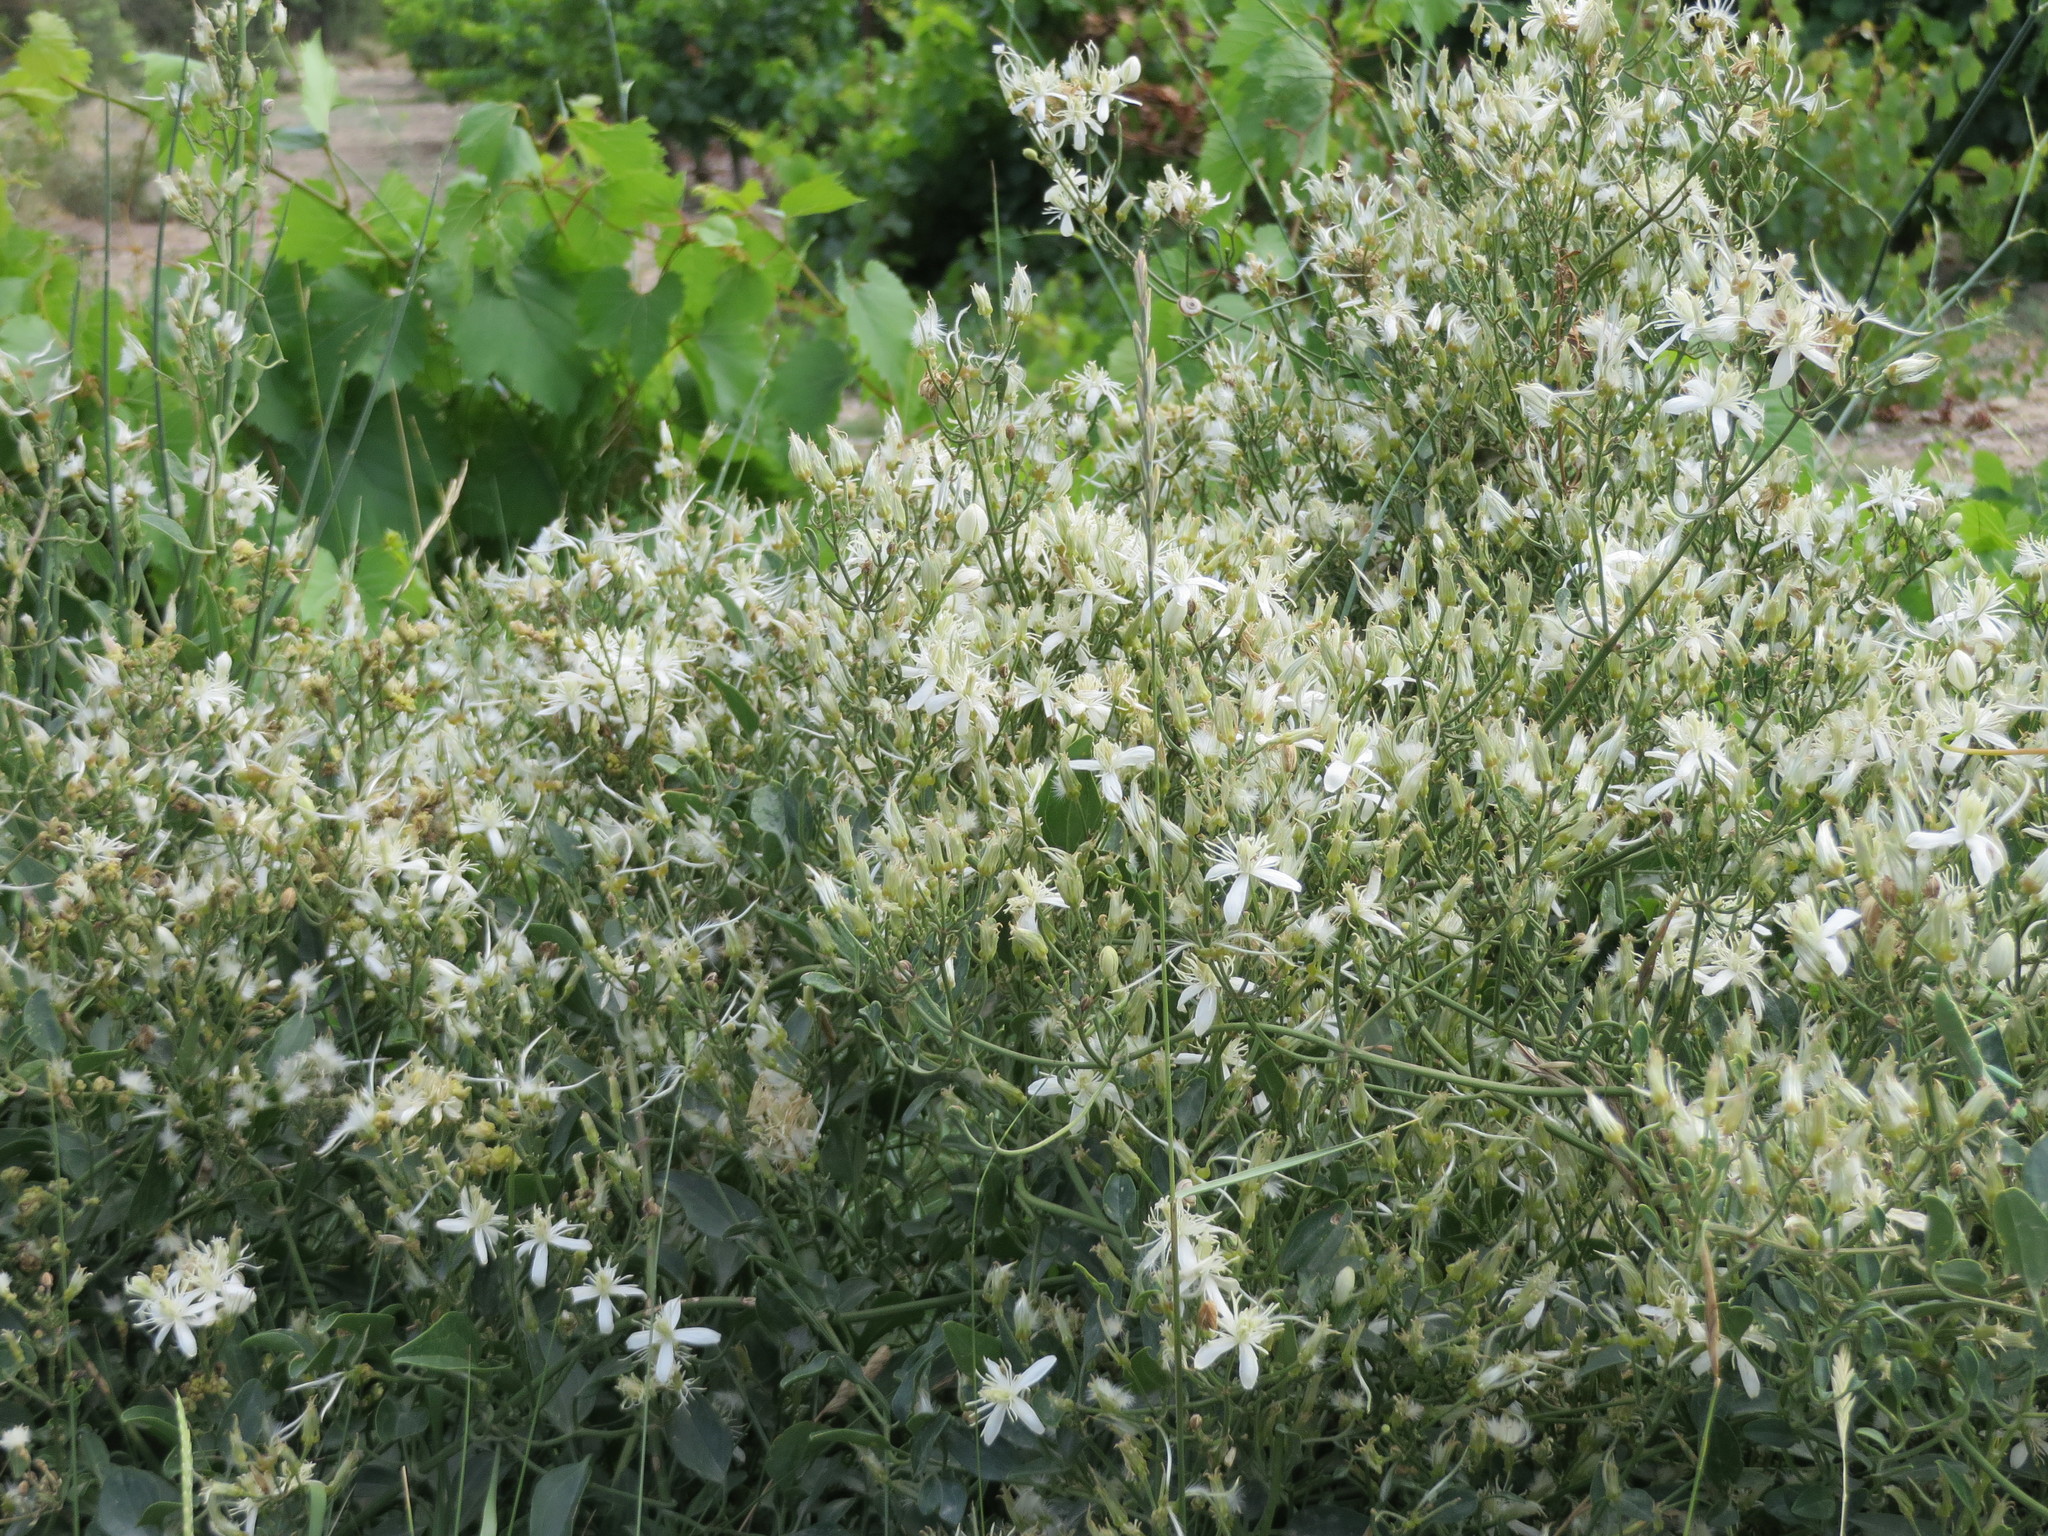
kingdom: Plantae
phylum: Tracheophyta
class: Magnoliopsida
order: Ranunculales
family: Ranunculaceae
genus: Clematis
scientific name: Clematis flammula
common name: Virgin's-bower
